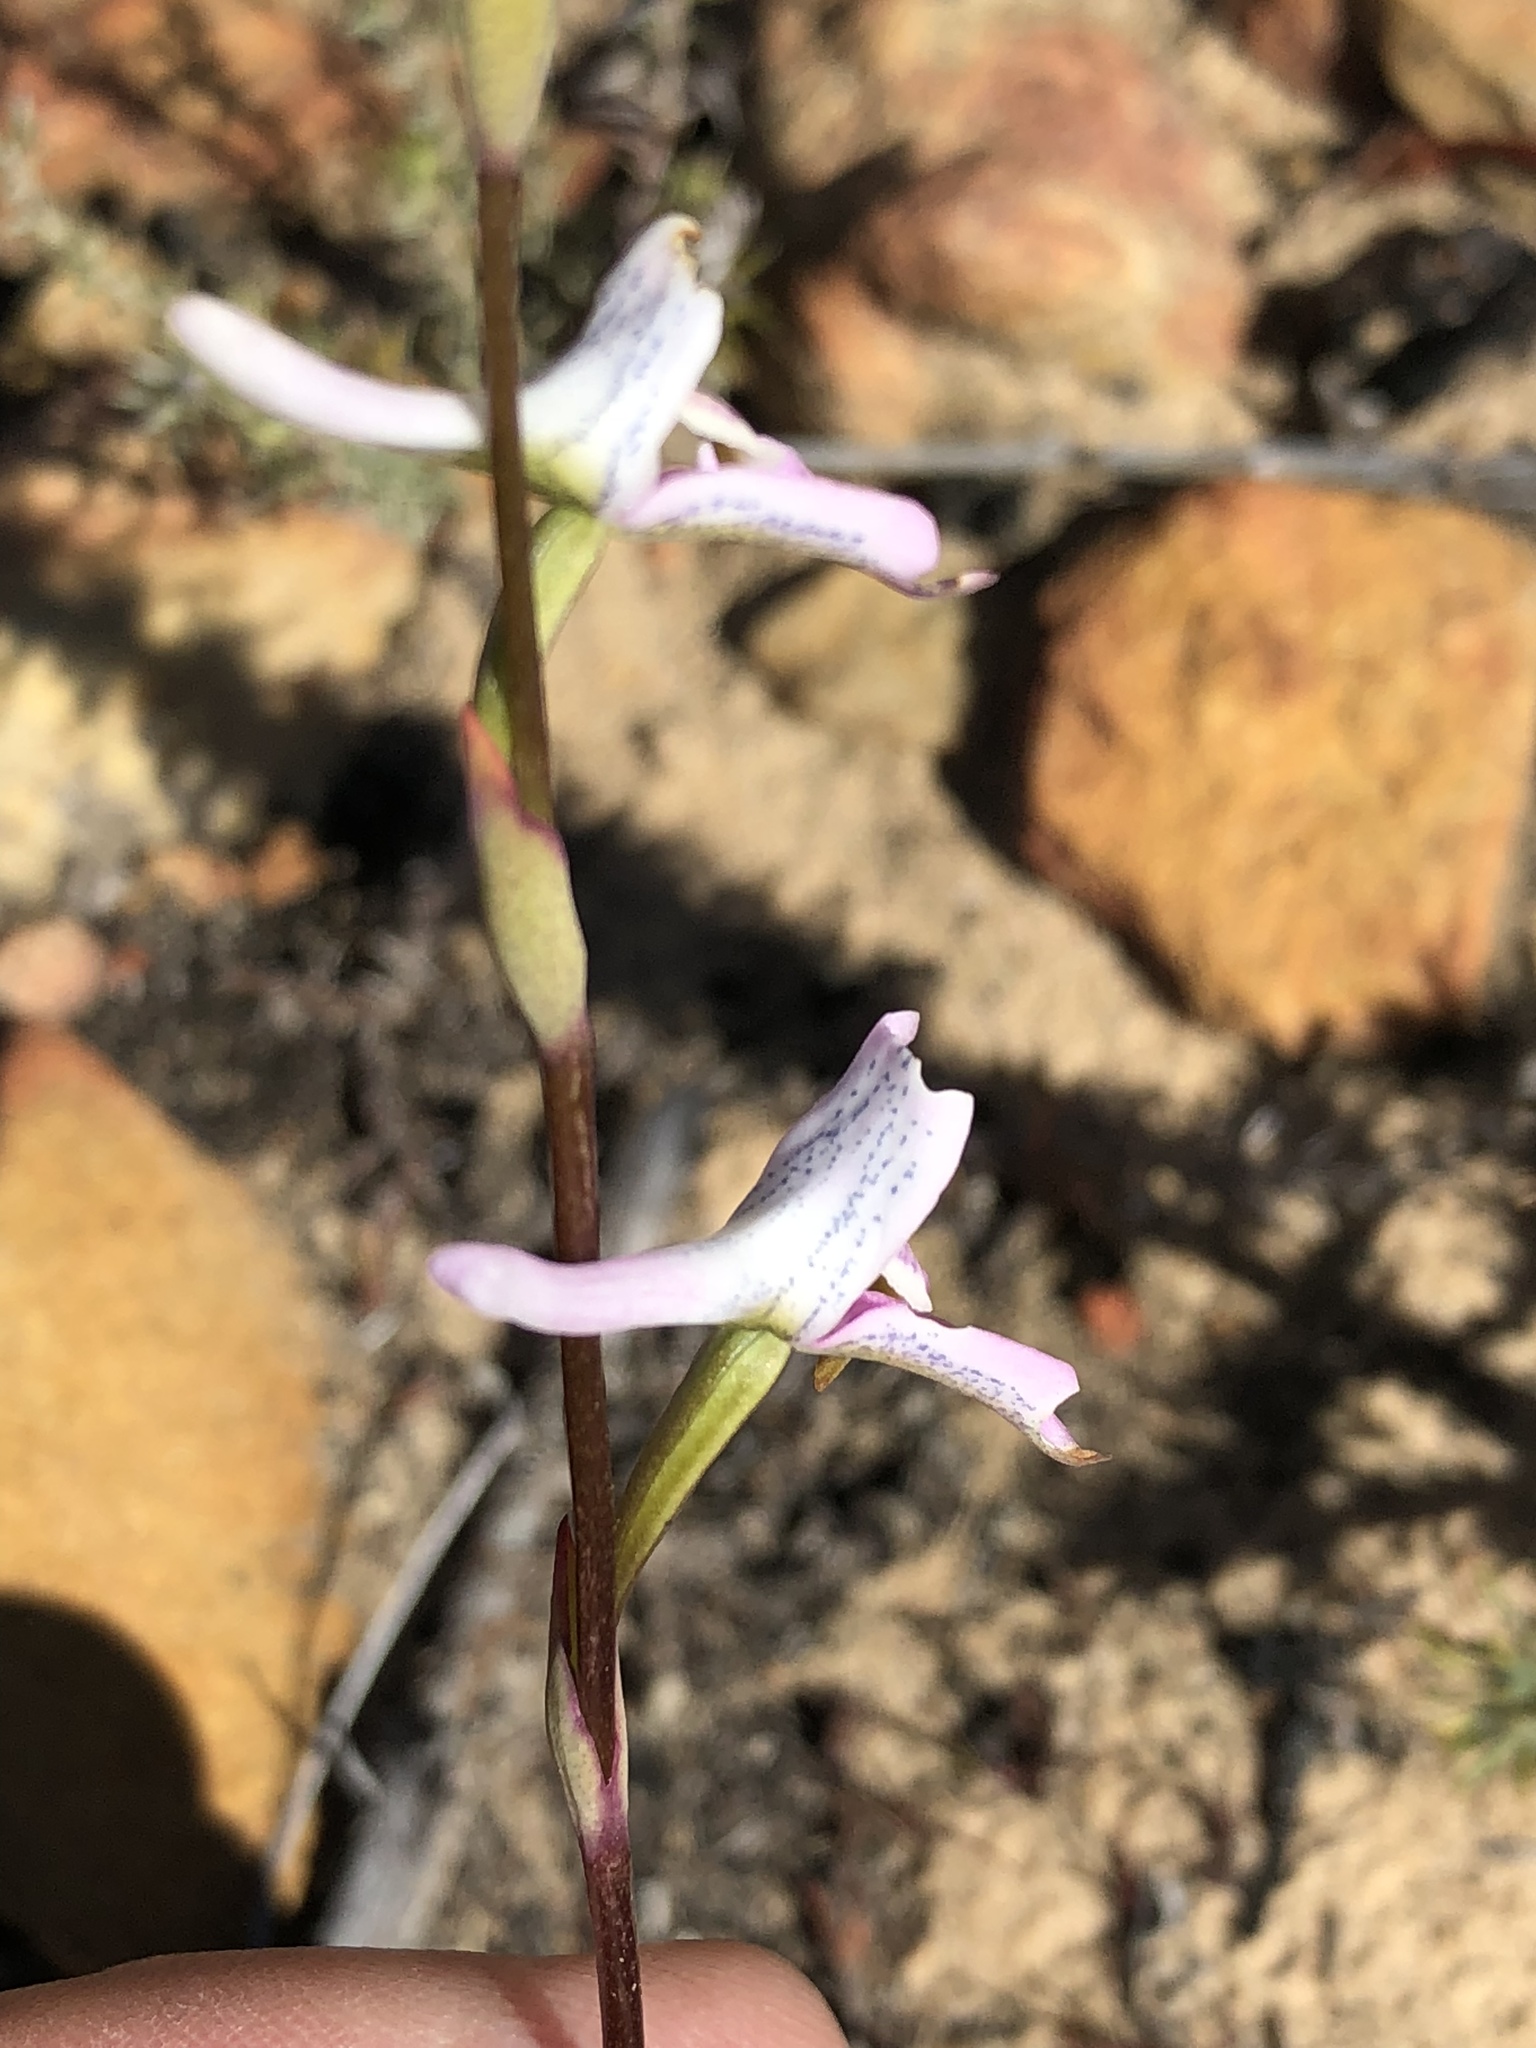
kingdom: Plantae
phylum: Tracheophyta
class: Liliopsida
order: Asparagales
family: Orchidaceae
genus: Disa
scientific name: Disa bifida
